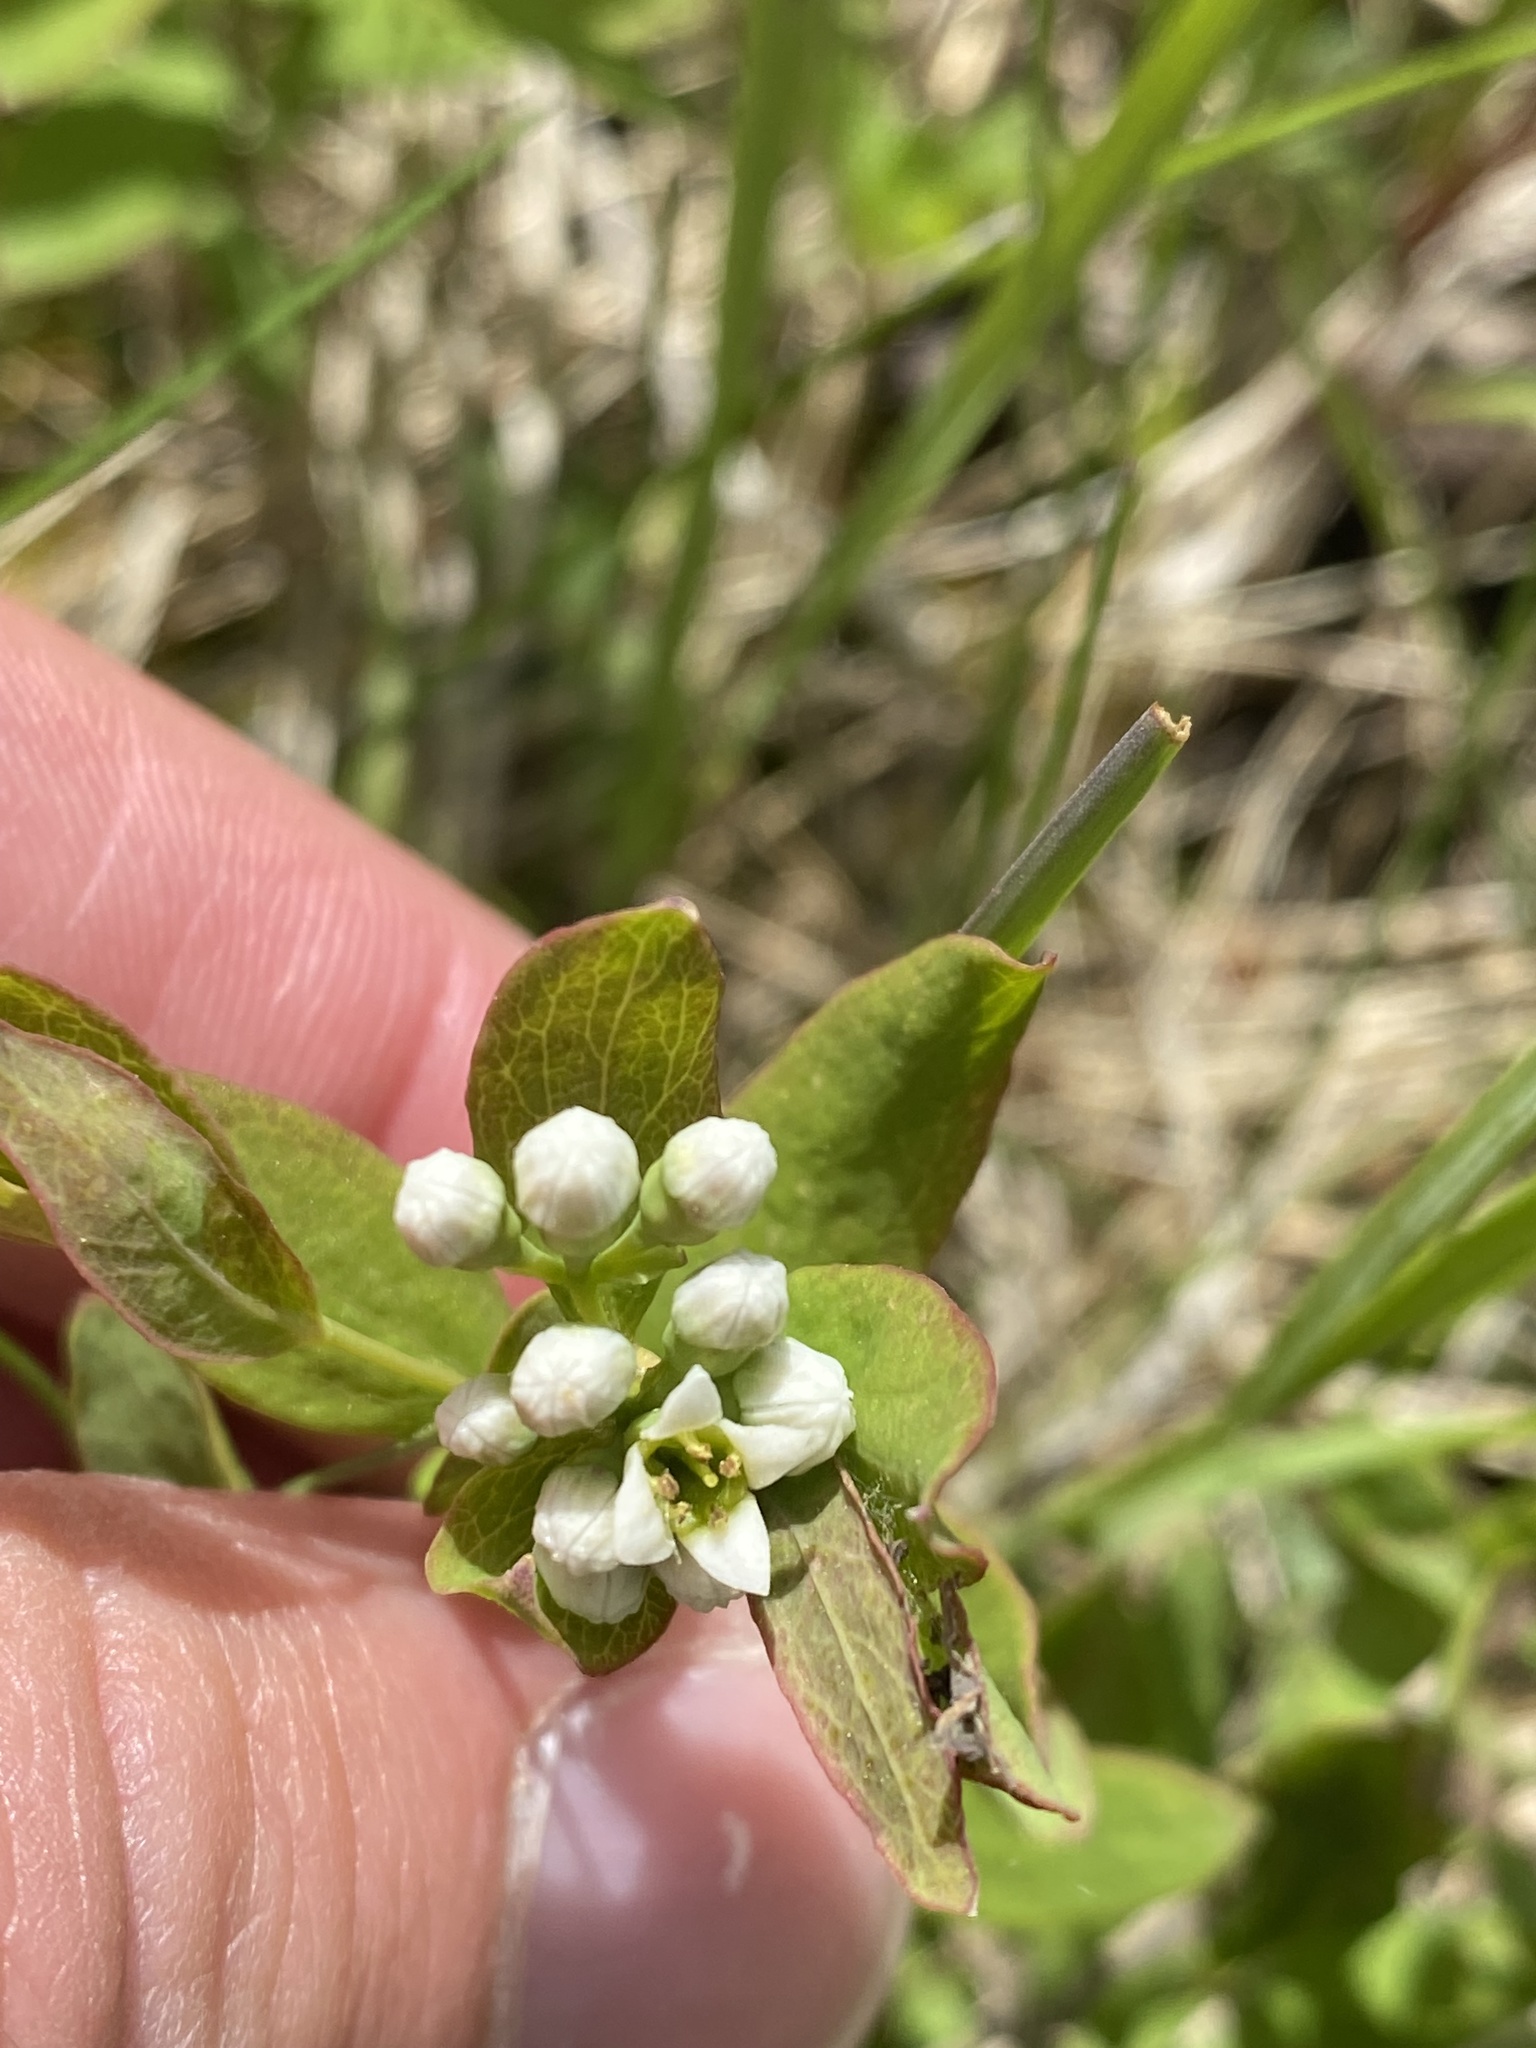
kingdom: Plantae
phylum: Tracheophyta
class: Magnoliopsida
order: Santalales
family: Comandraceae
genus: Comandra
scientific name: Comandra umbellata
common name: Bastard toadflax
